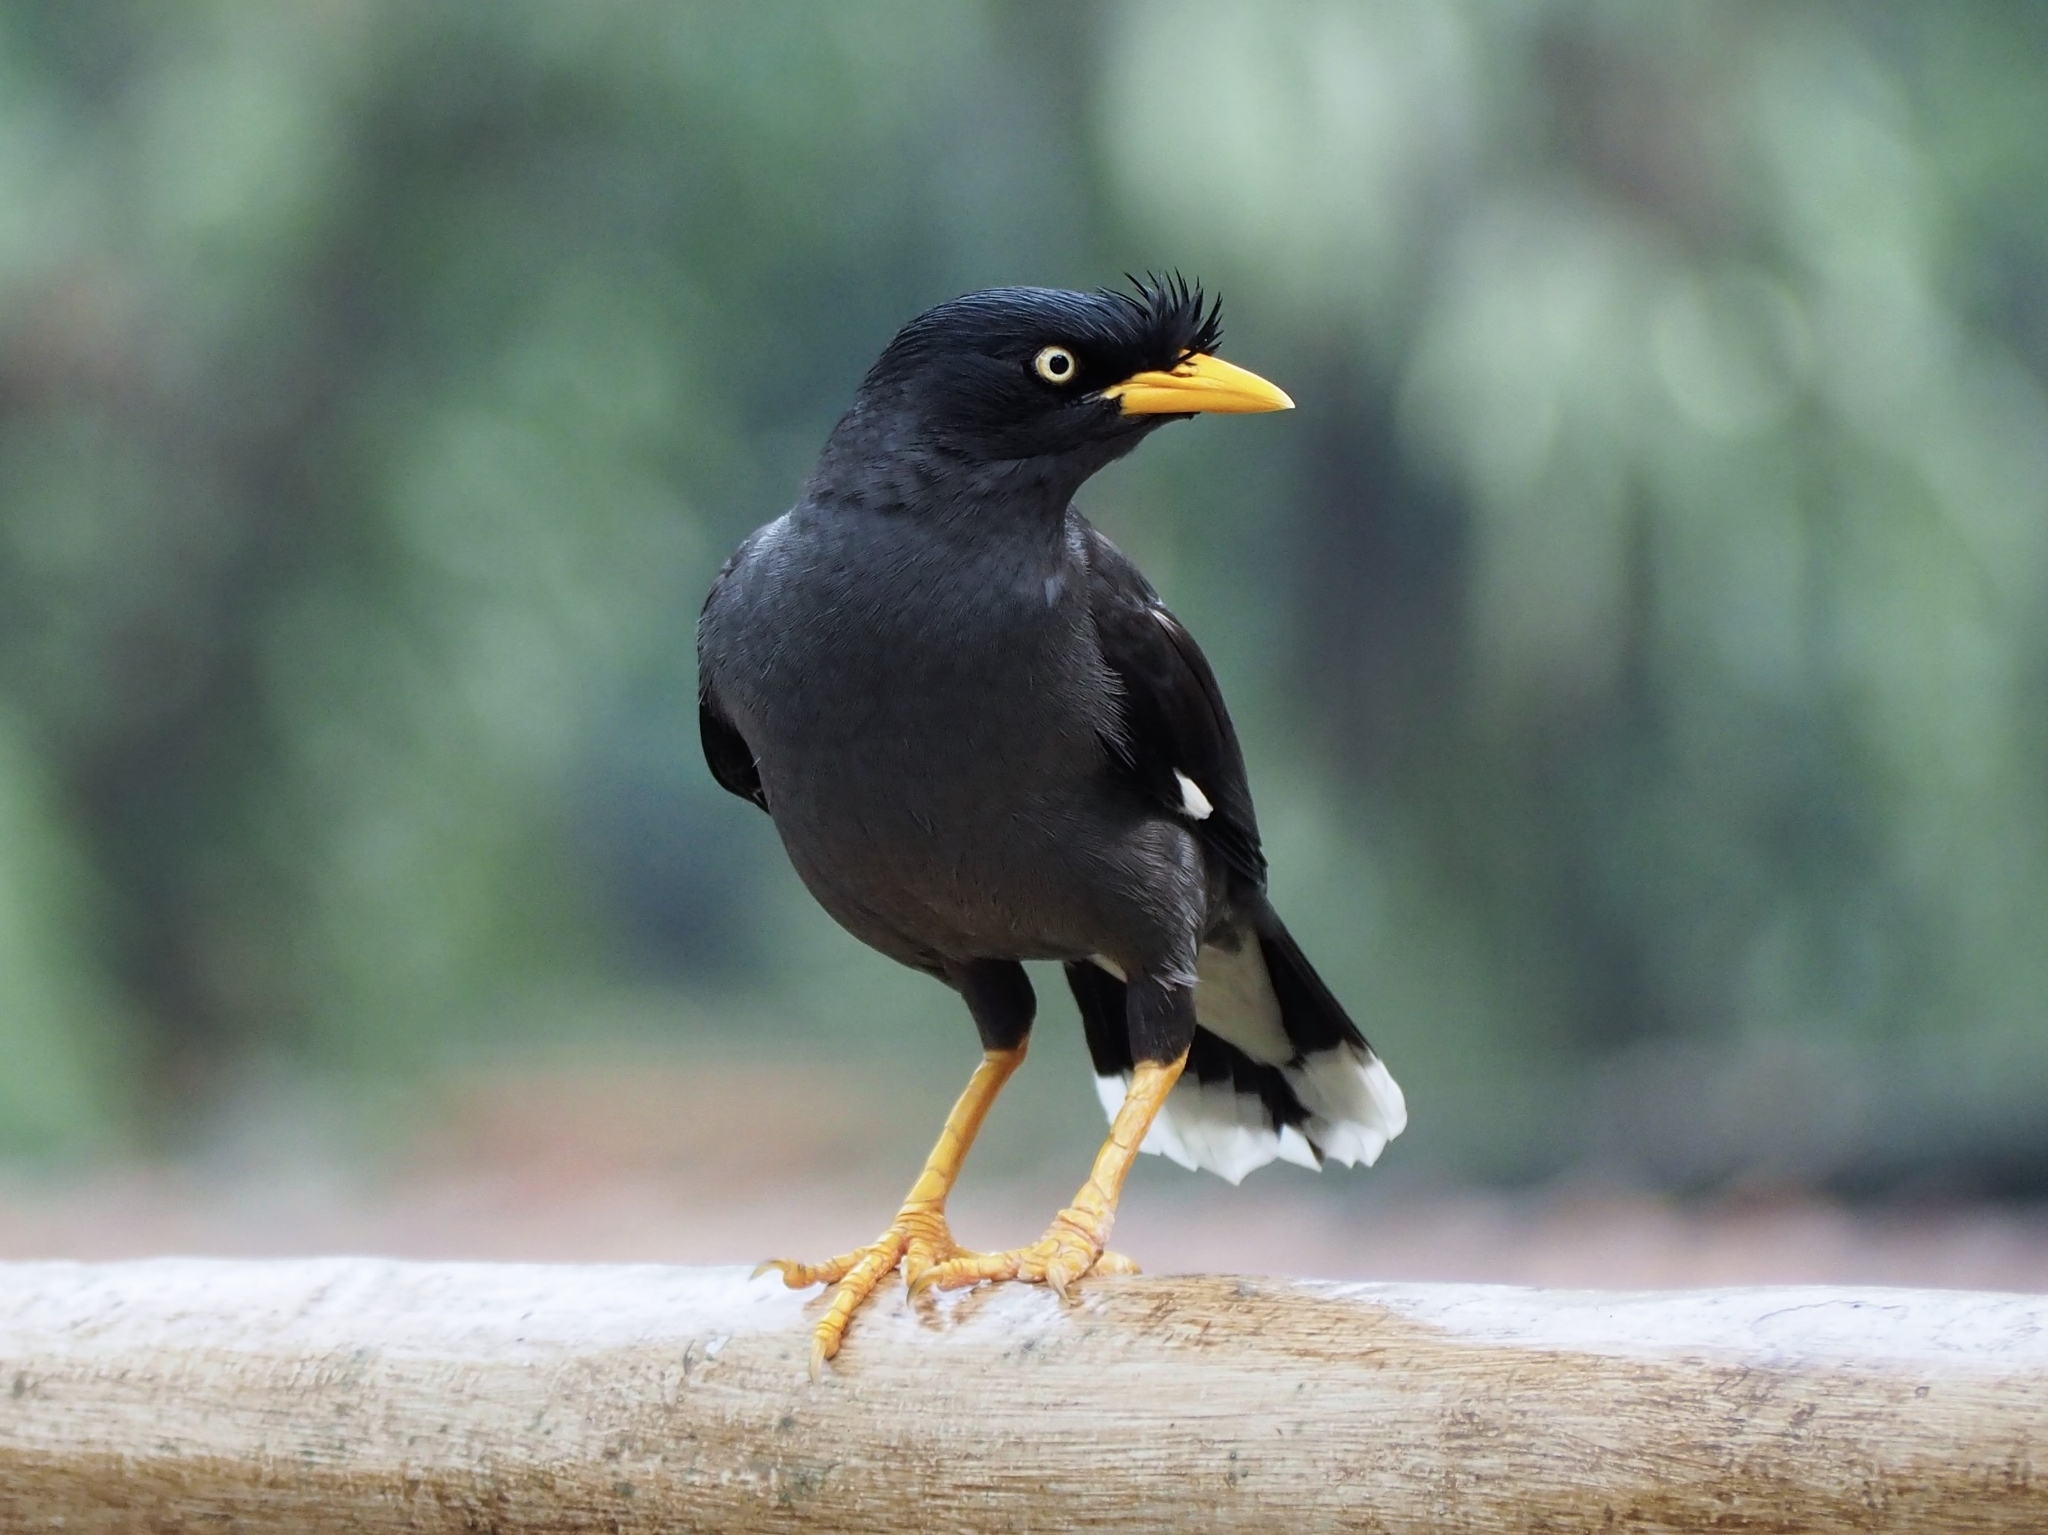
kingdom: Animalia
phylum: Chordata
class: Aves
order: Passeriformes
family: Sturnidae
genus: Acridotheres
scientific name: Acridotheres javanicus
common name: Javan myna
